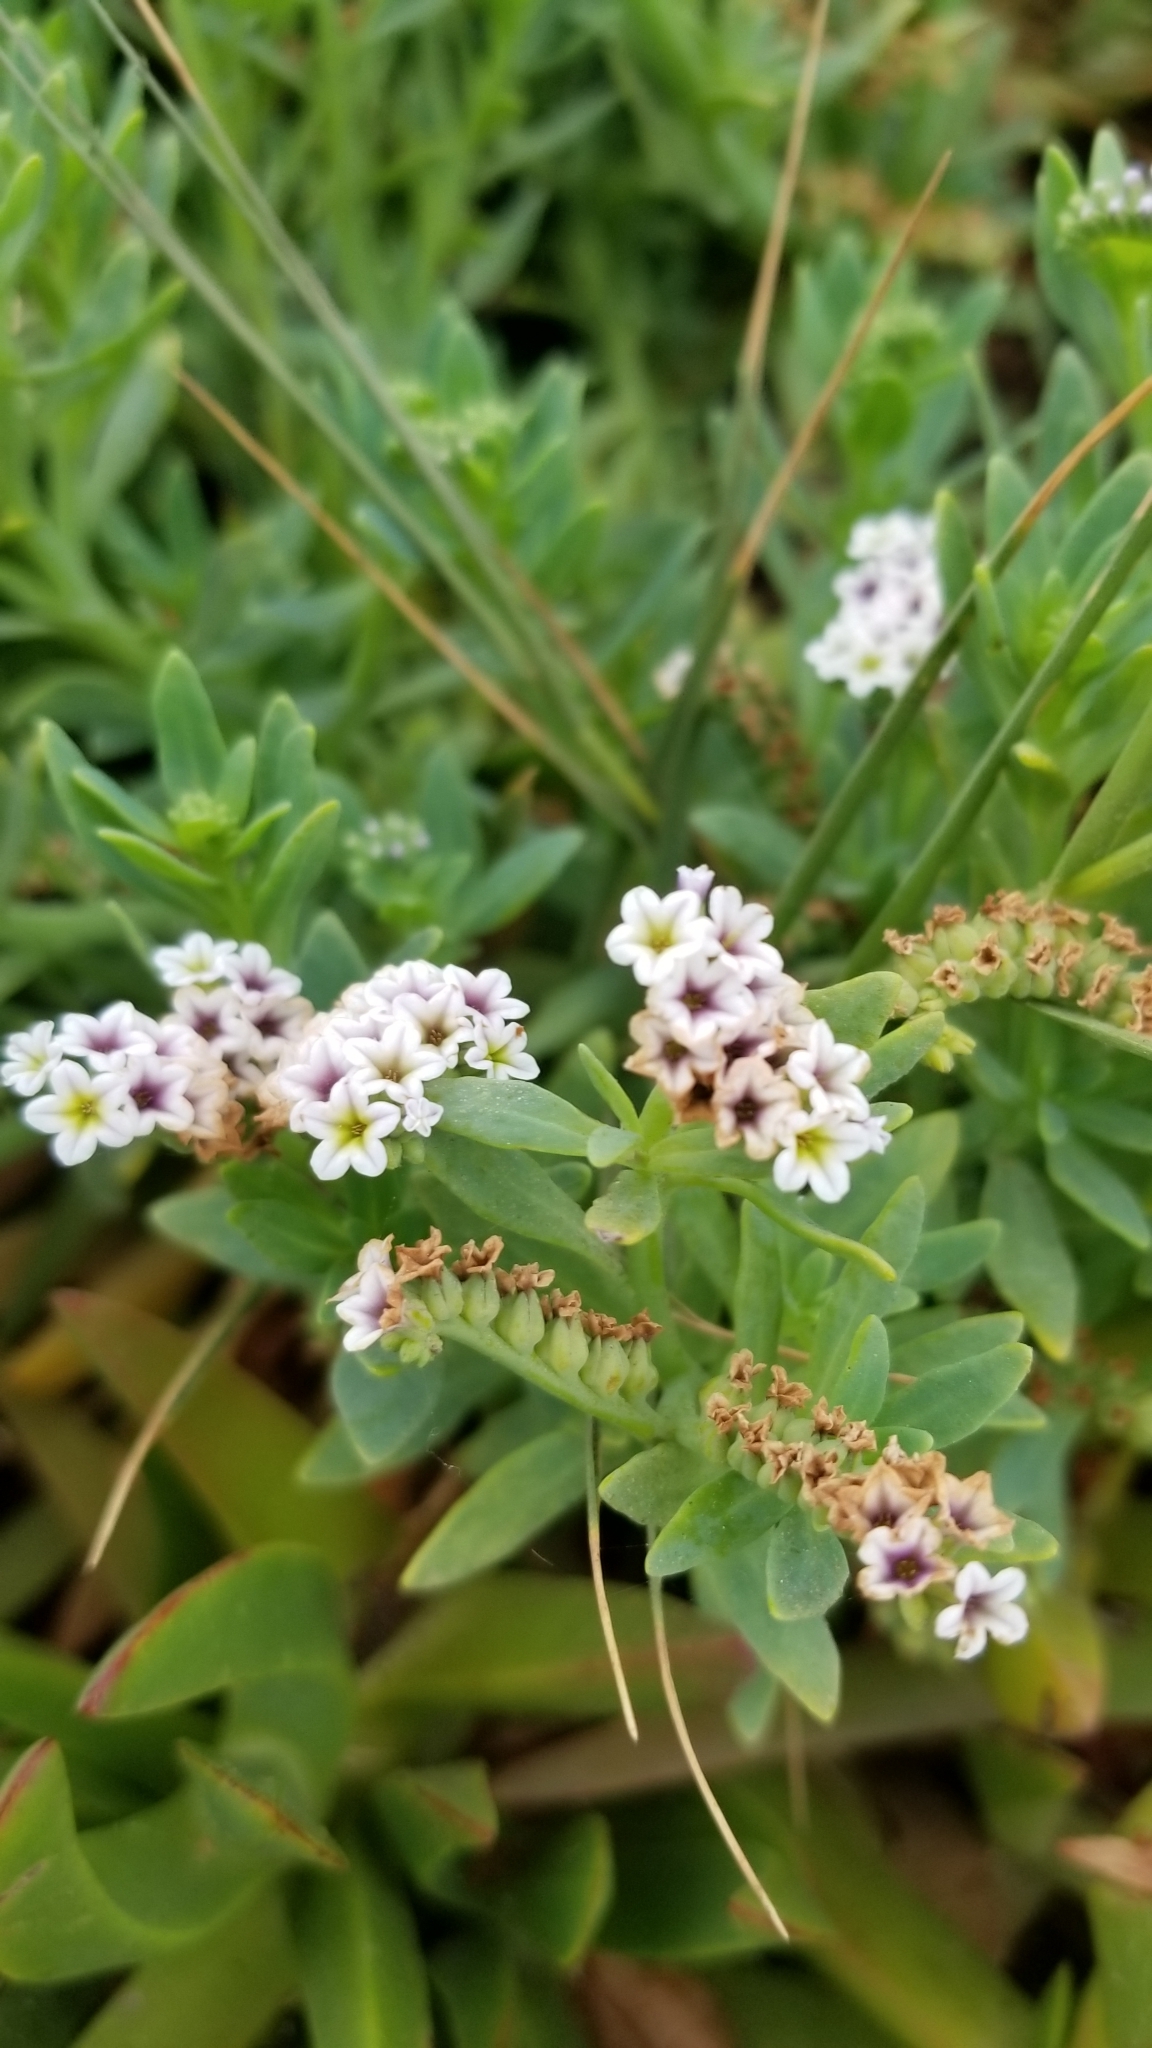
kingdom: Plantae
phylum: Tracheophyta
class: Magnoliopsida
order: Boraginales
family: Heliotropiaceae
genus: Heliotropium
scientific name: Heliotropium curassavicum
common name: Seaside heliotrope
